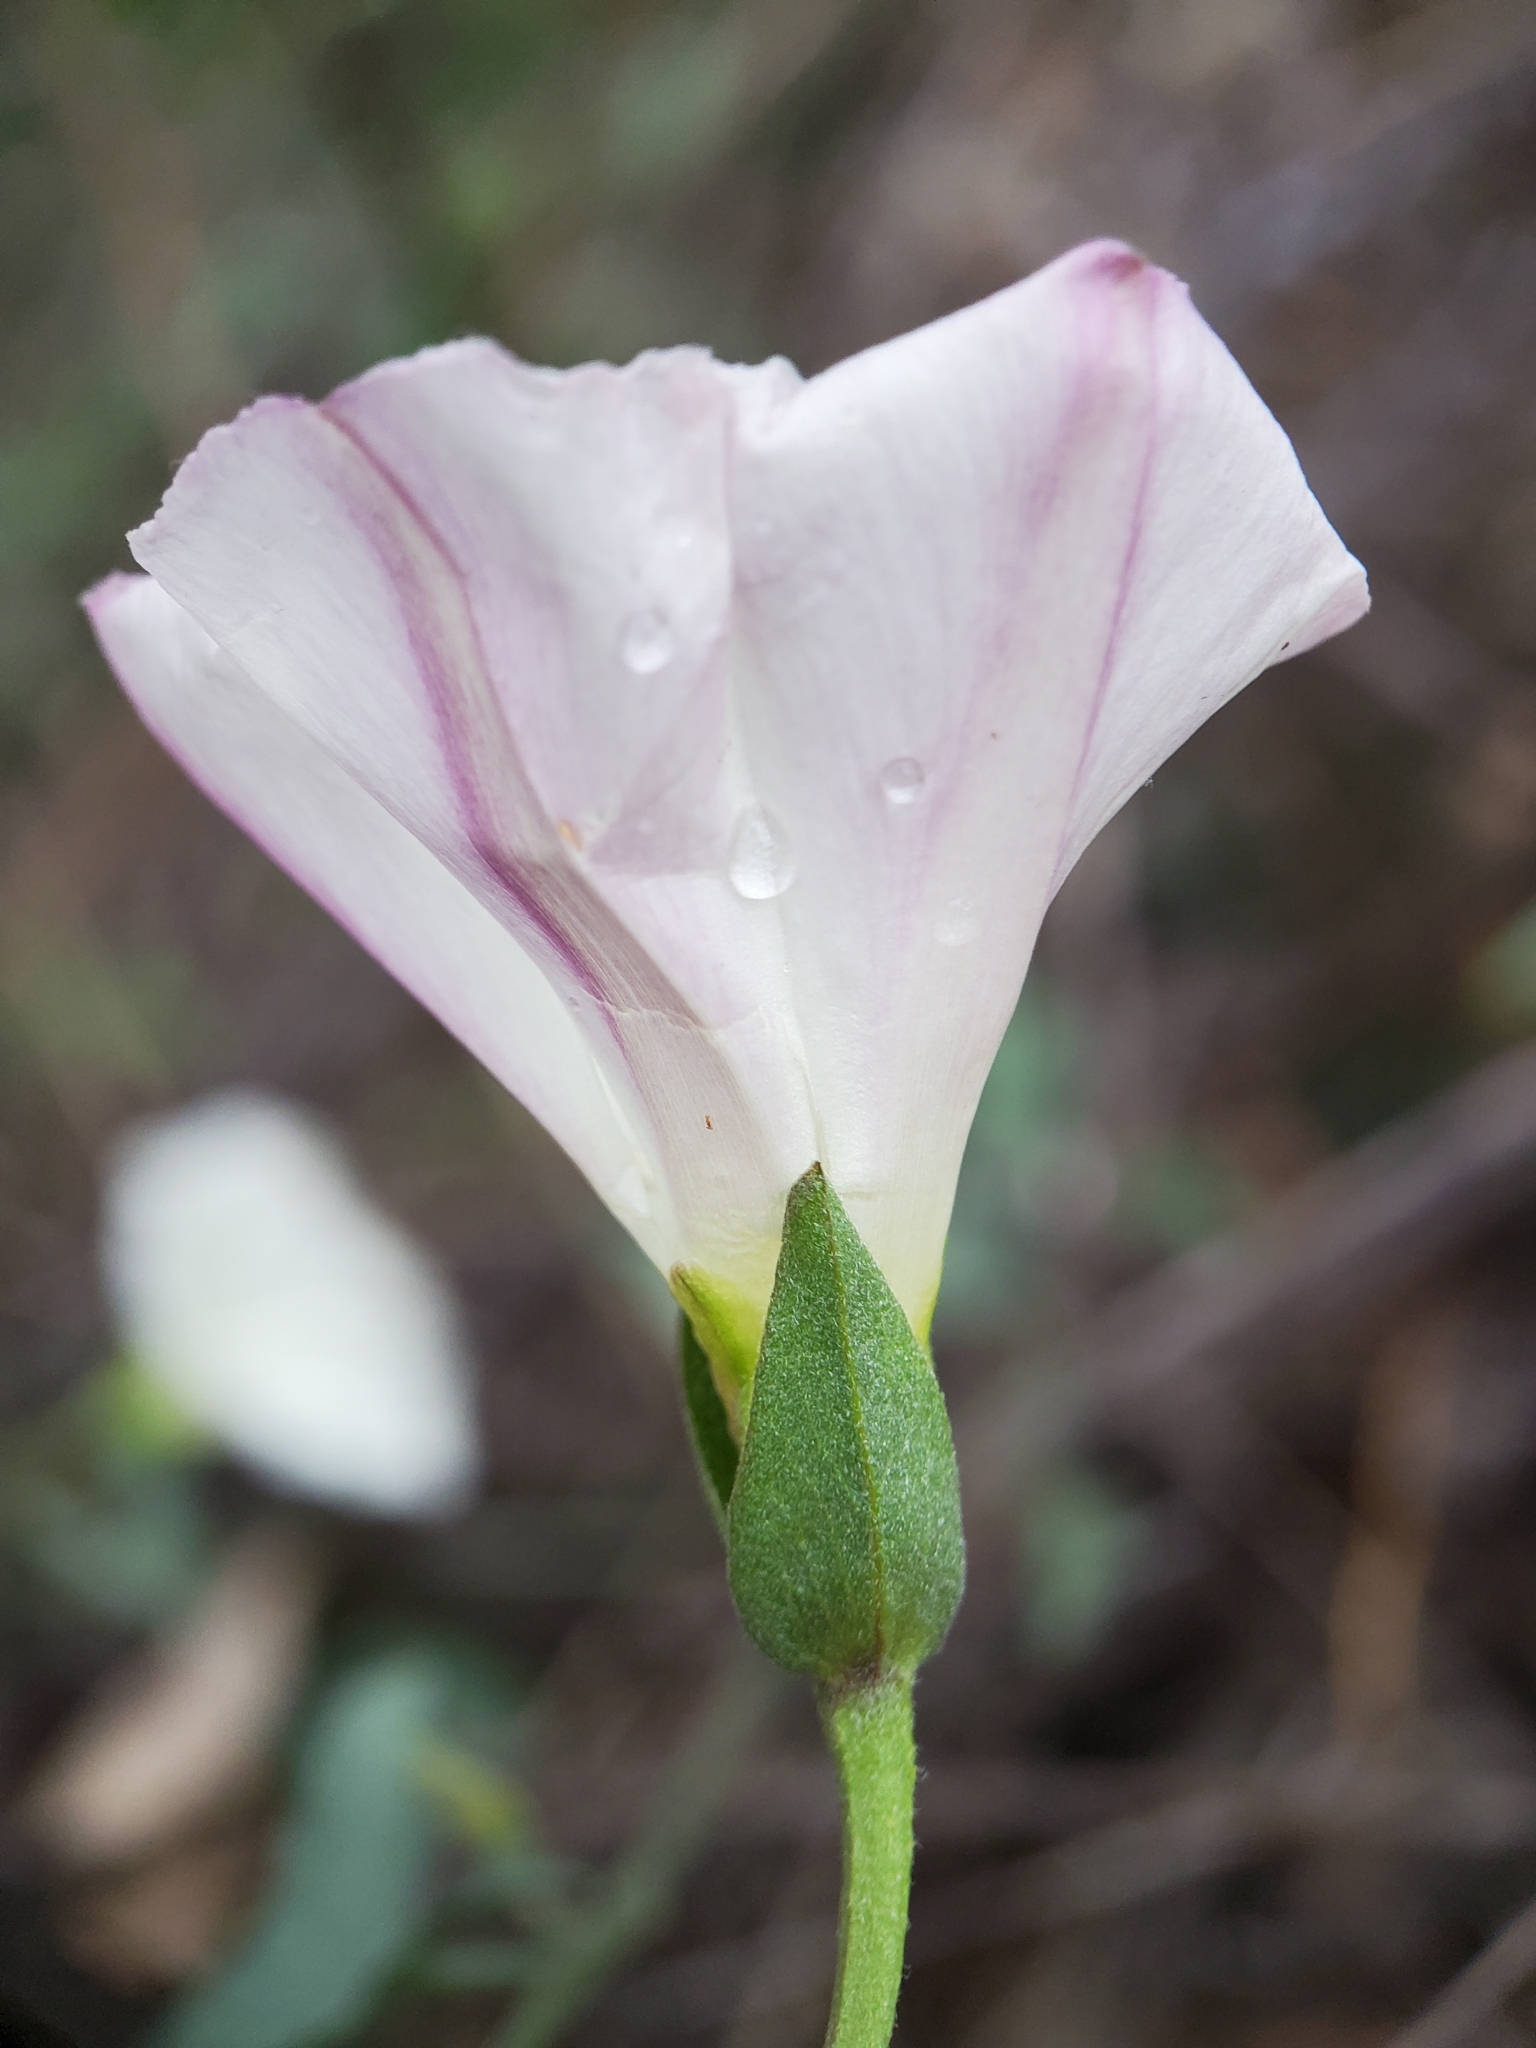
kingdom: Plantae
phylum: Tracheophyta
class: Magnoliopsida
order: Solanales
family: Convolvulaceae
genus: Calystegia
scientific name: Calystegia macrostegia
